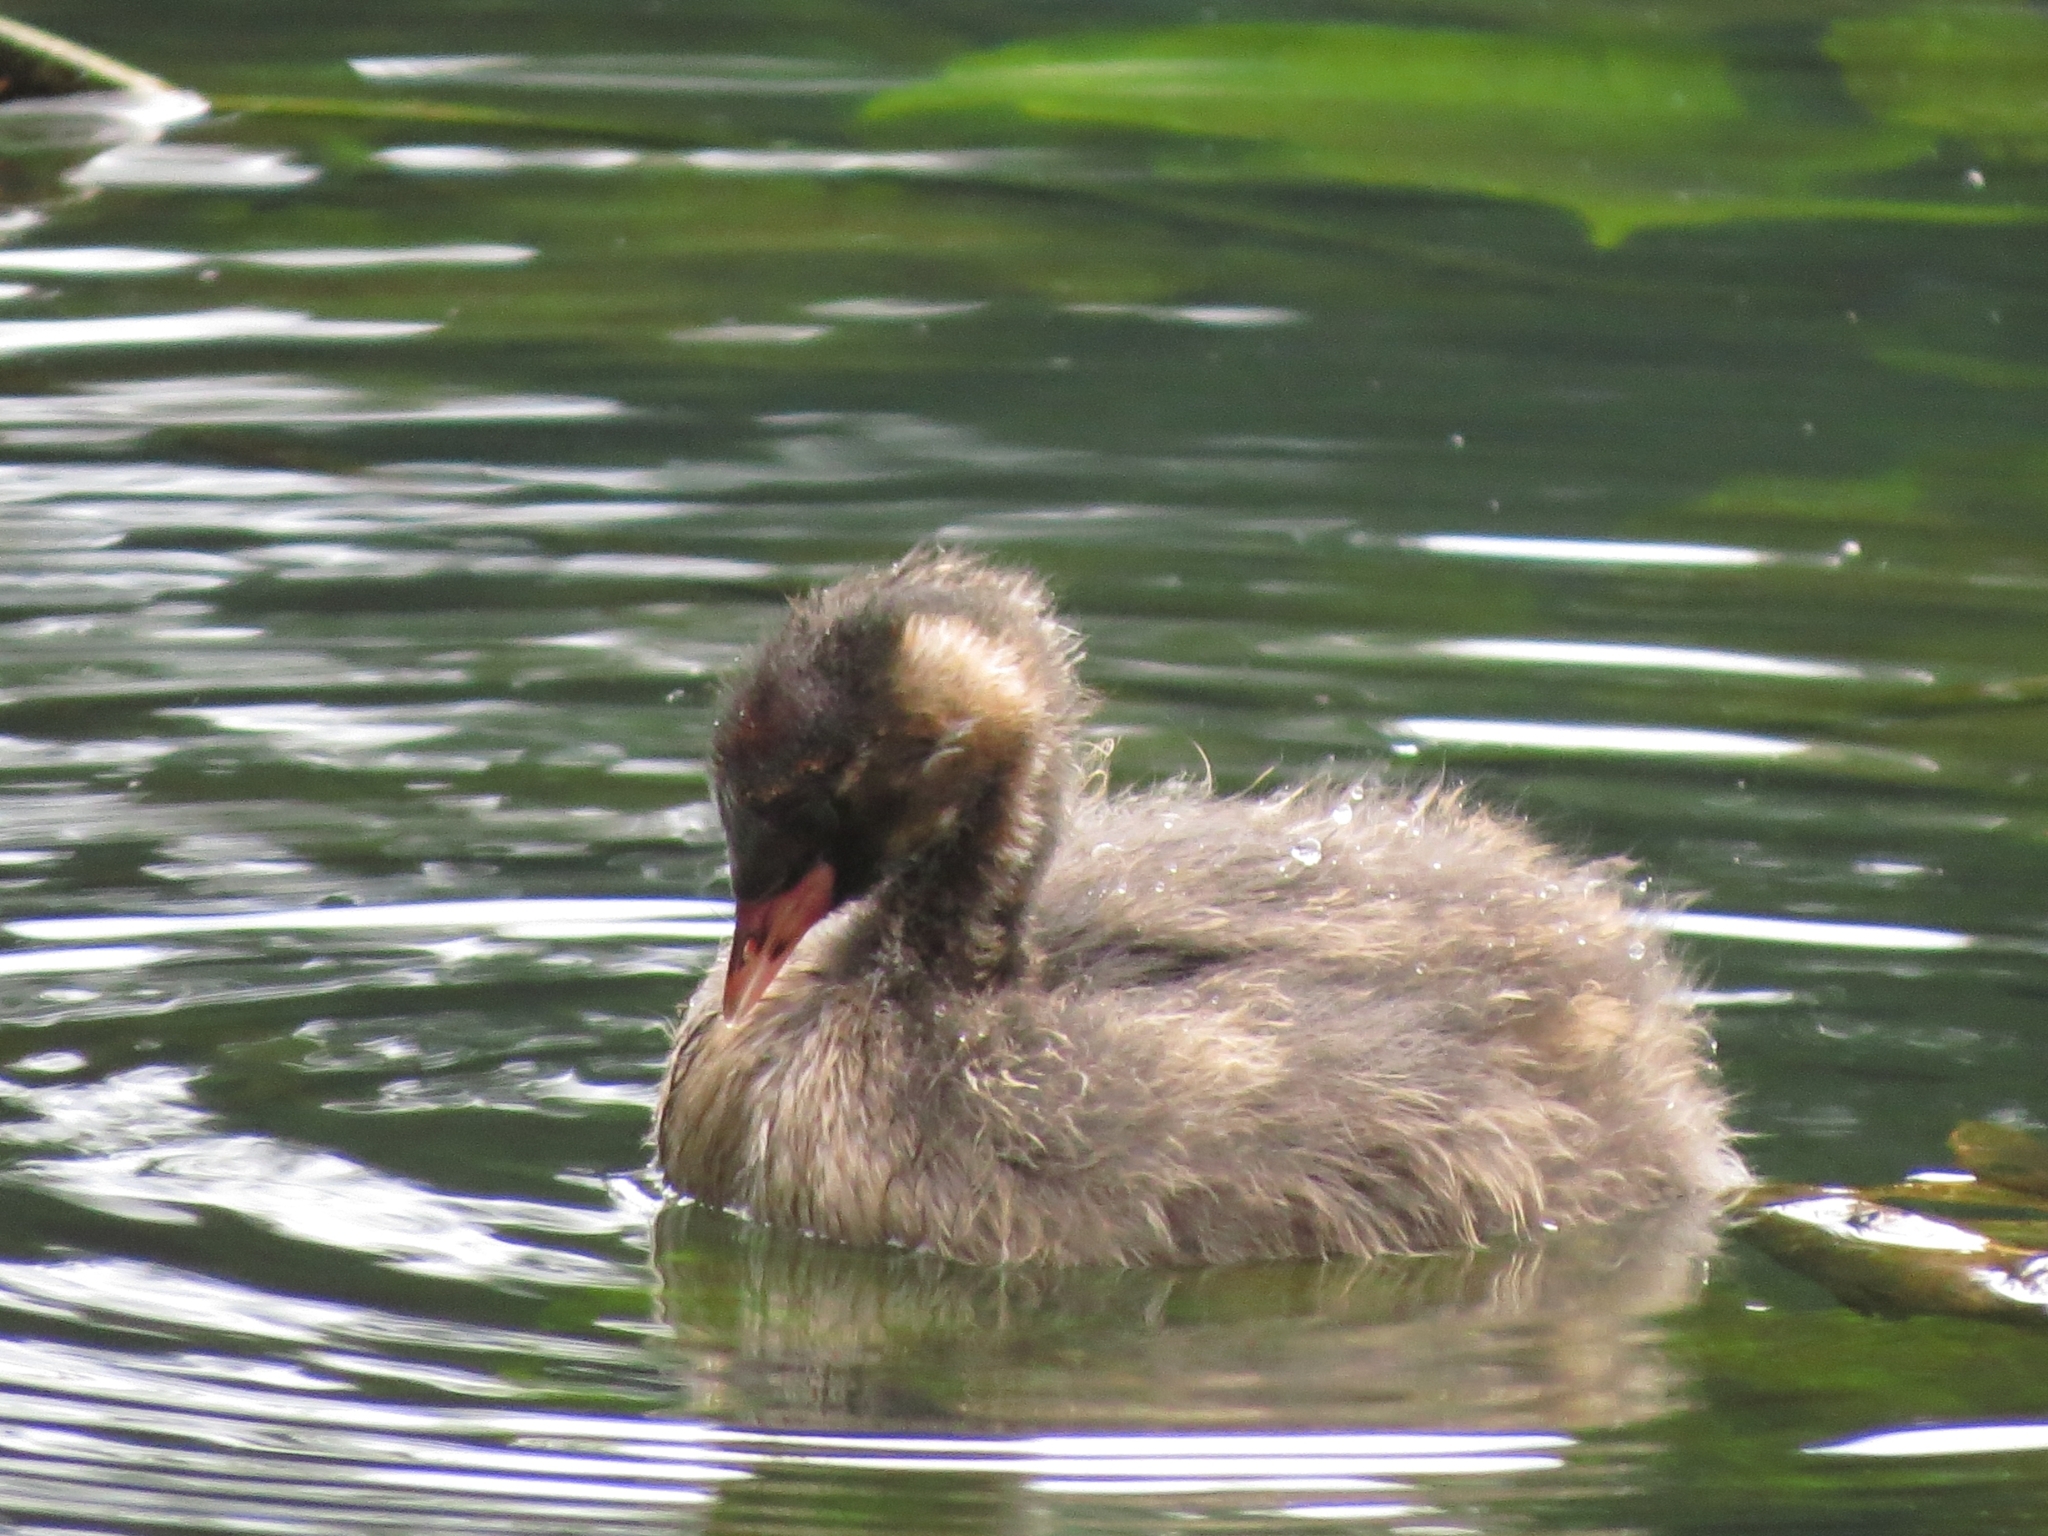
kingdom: Animalia
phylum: Chordata
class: Aves
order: Podicipediformes
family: Podicipedidae
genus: Tachybaptus
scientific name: Tachybaptus ruficollis
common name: Little grebe
